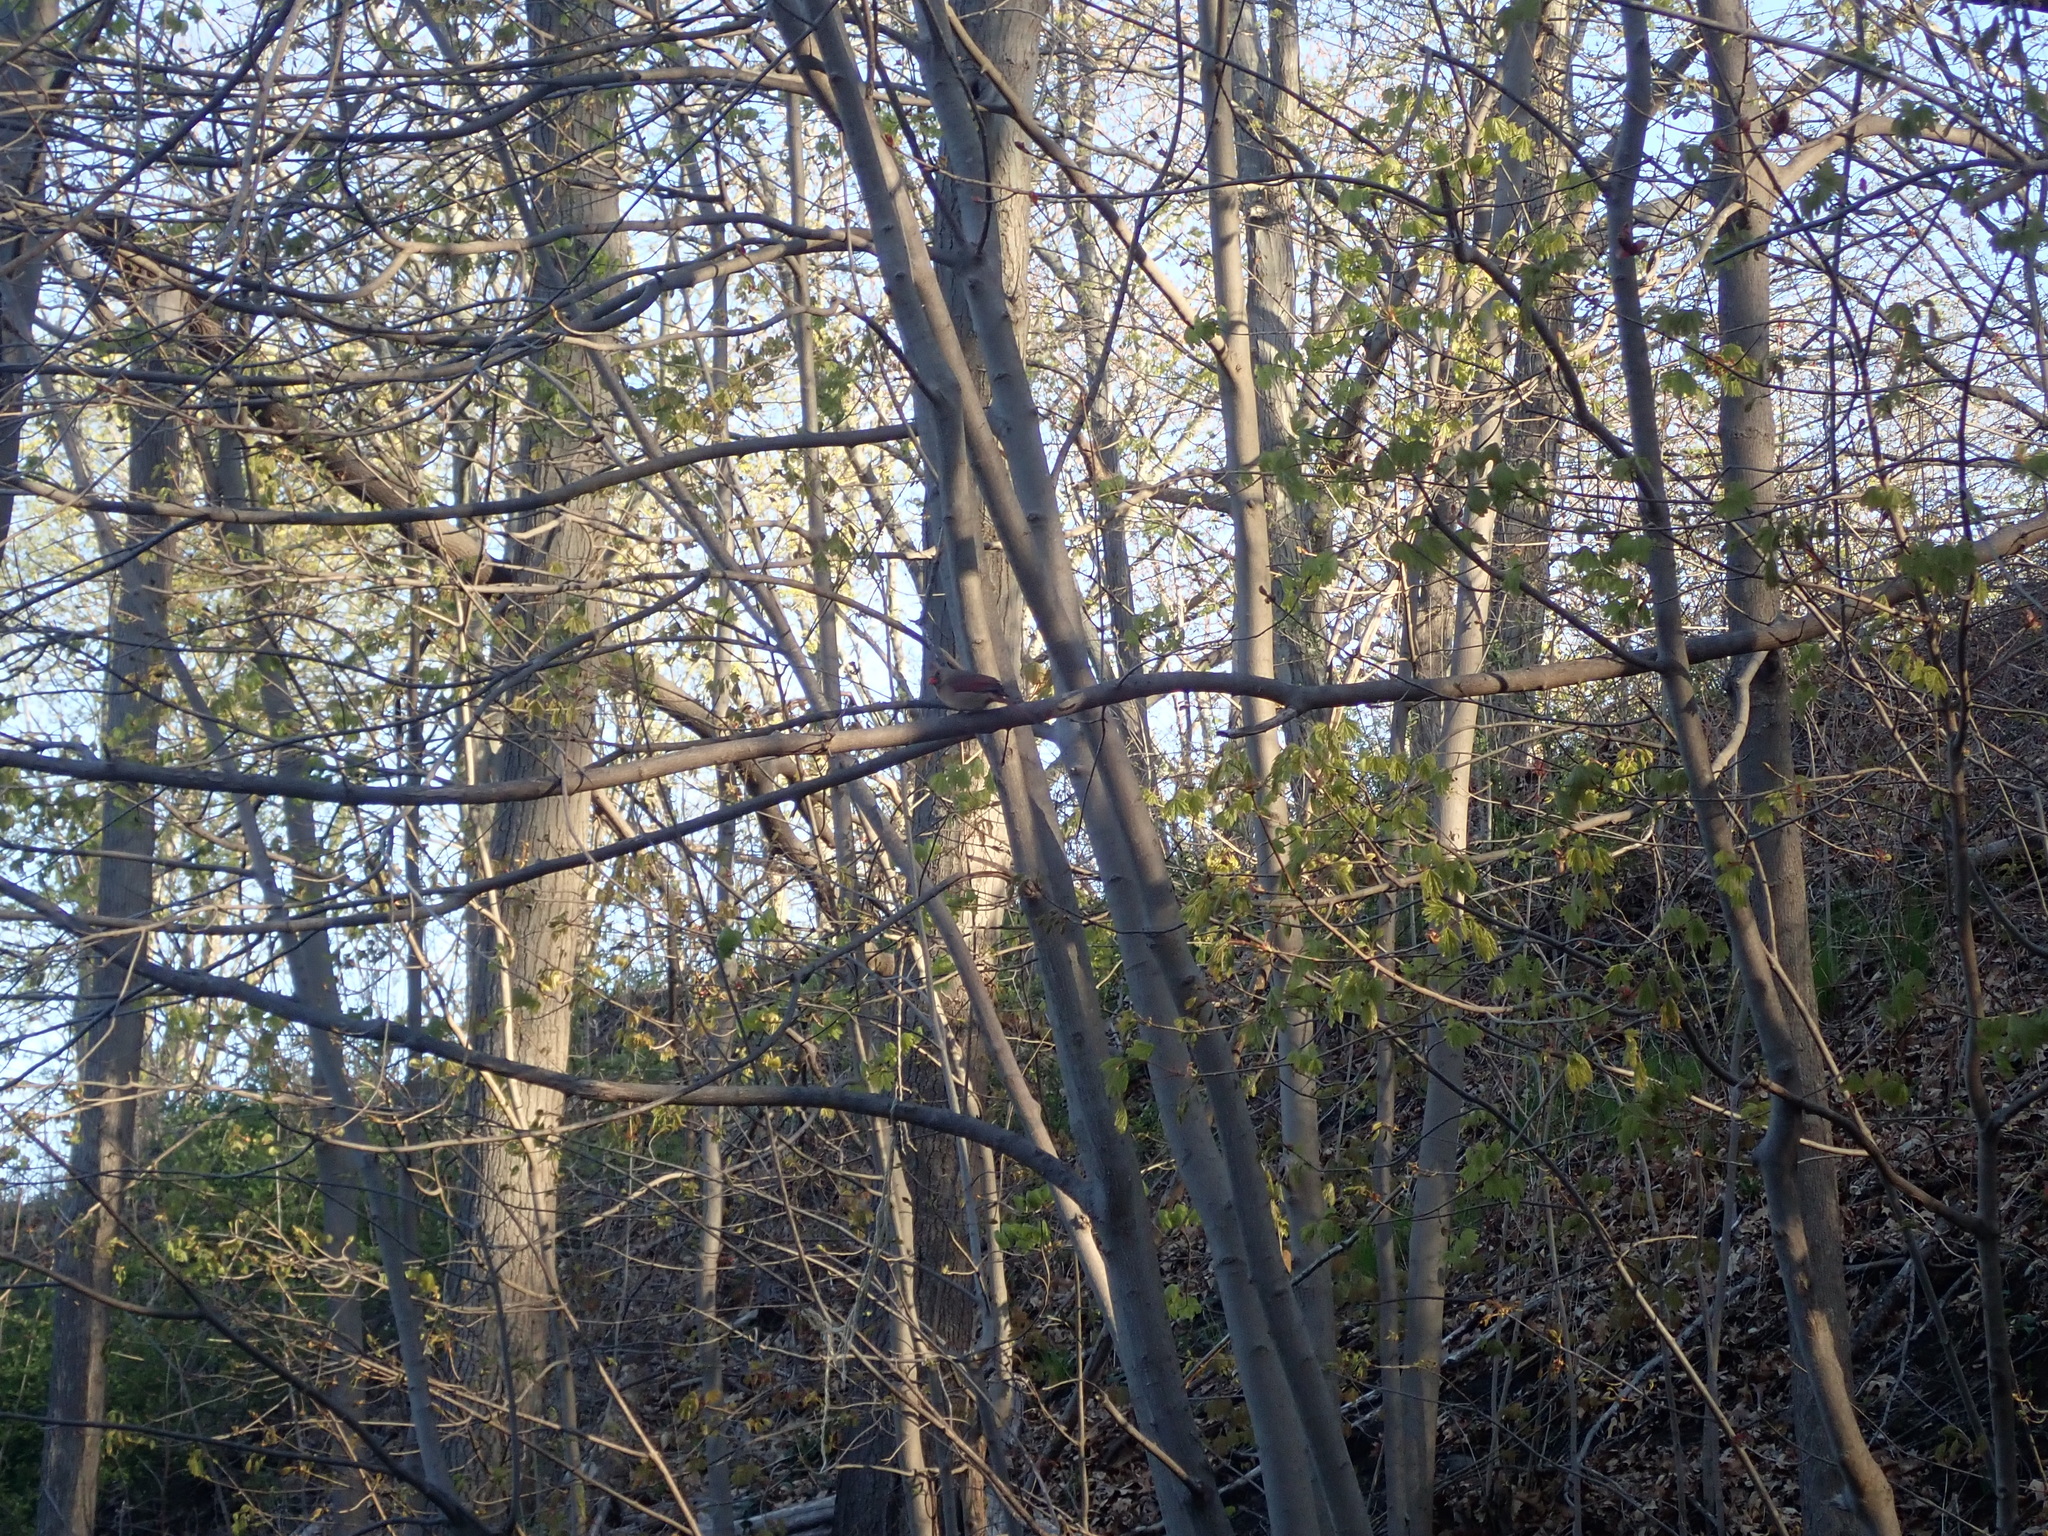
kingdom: Animalia
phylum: Chordata
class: Aves
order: Passeriformes
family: Cardinalidae
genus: Cardinalis
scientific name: Cardinalis cardinalis
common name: Northern cardinal
